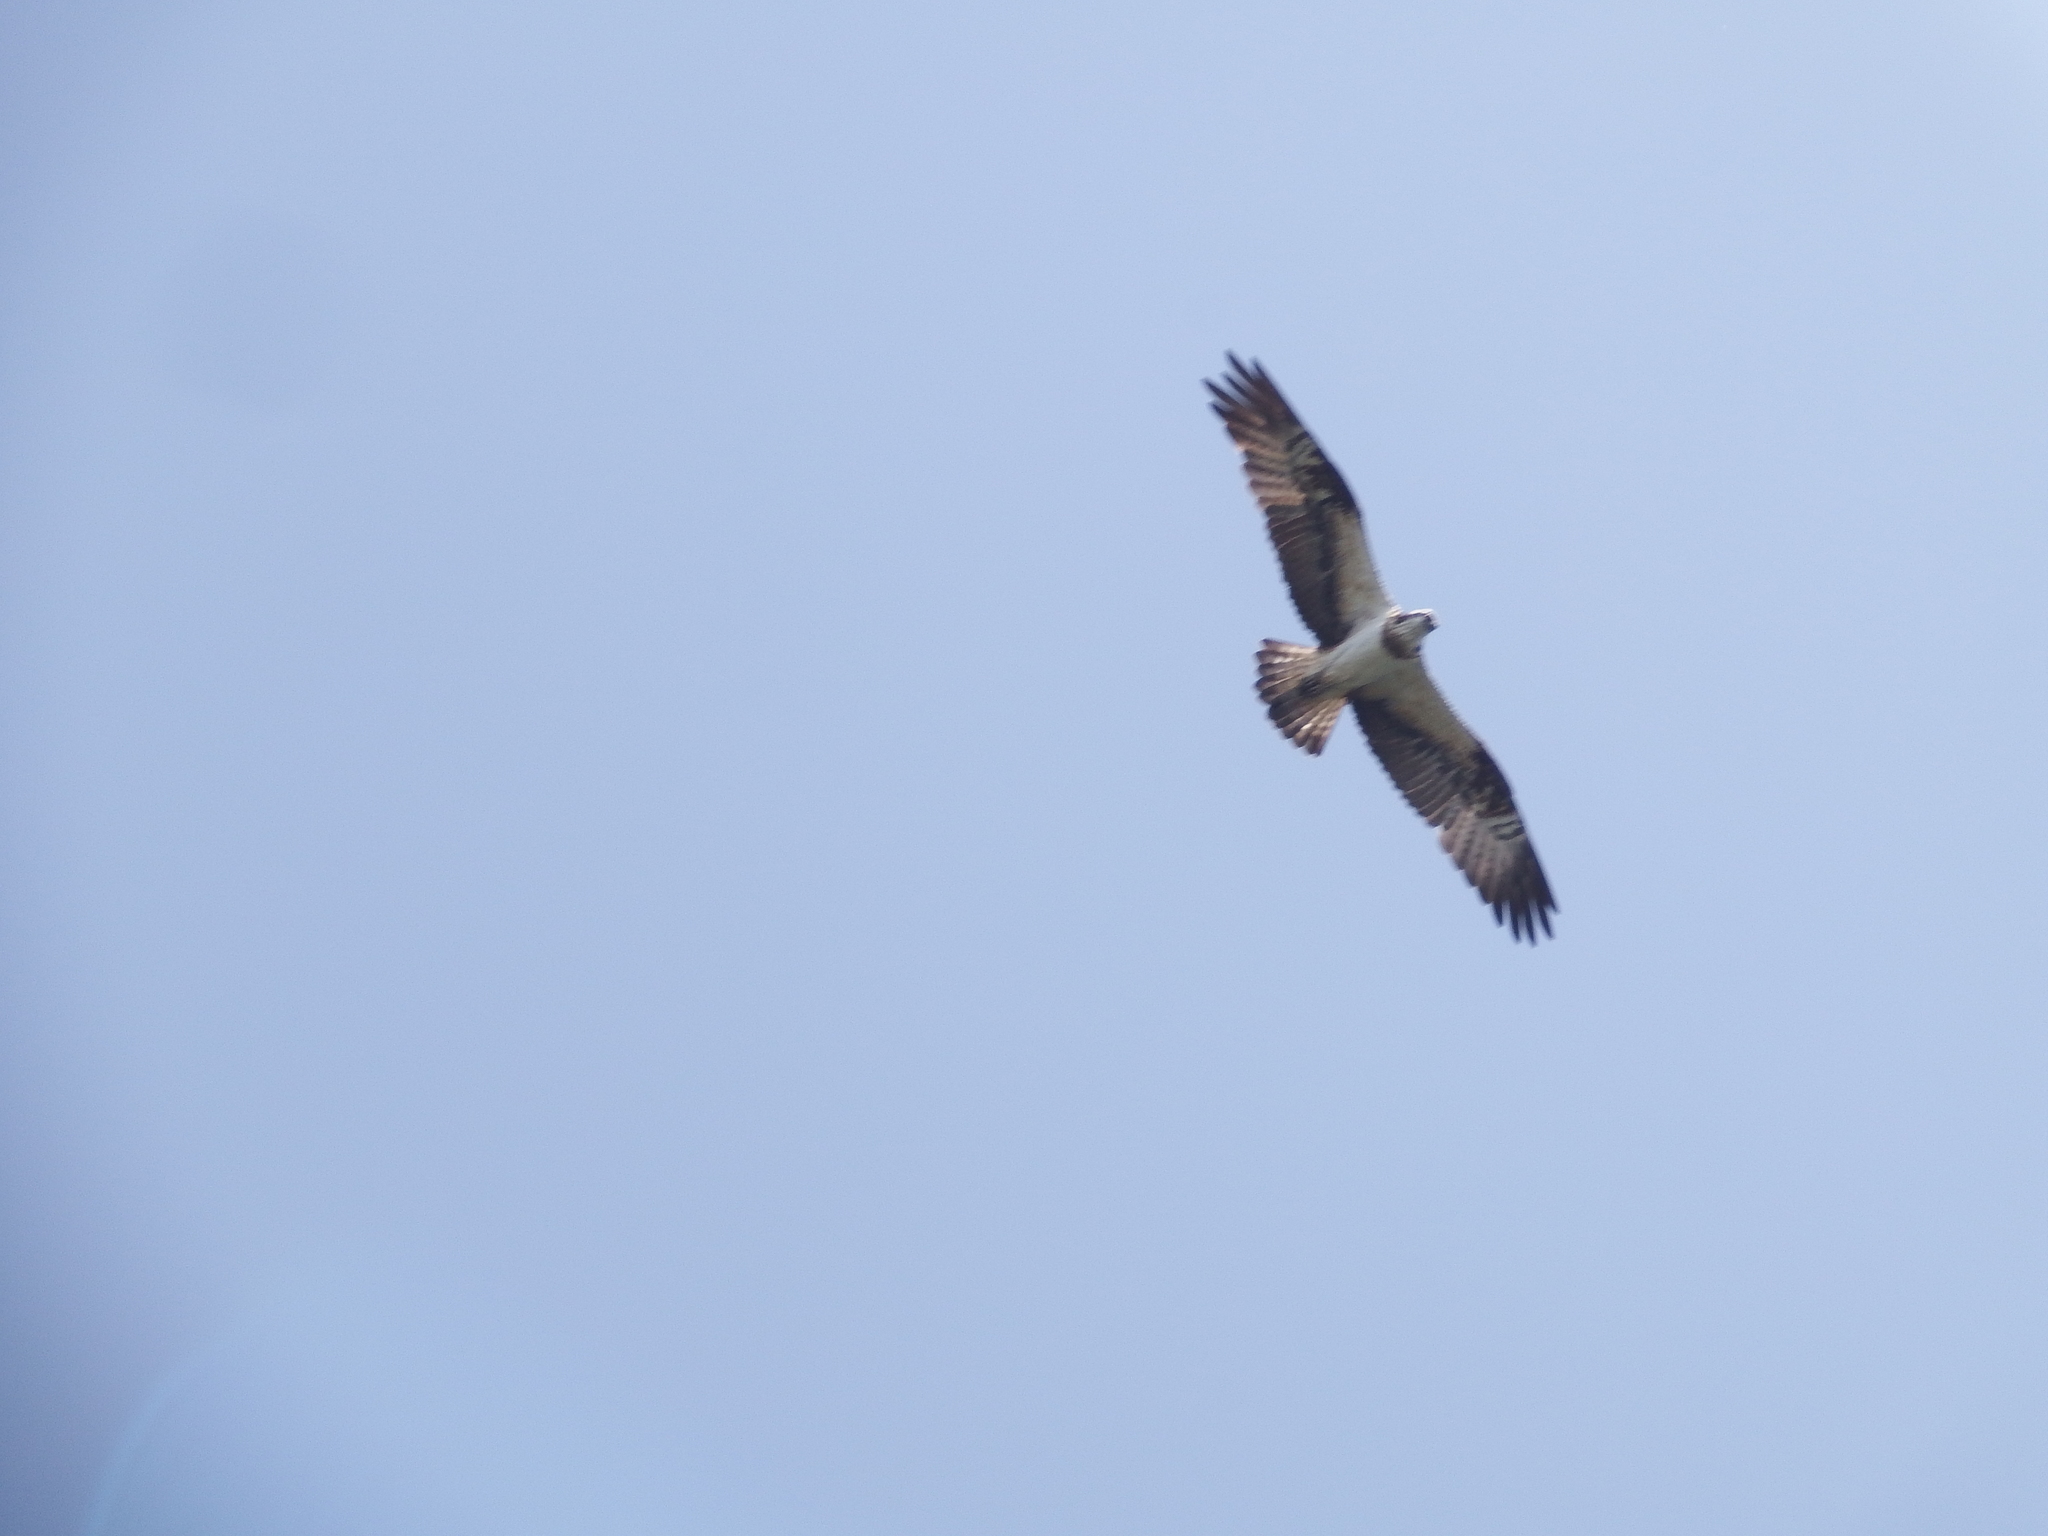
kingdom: Animalia
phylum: Chordata
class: Aves
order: Accipitriformes
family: Pandionidae
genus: Pandion
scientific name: Pandion haliaetus
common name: Osprey
